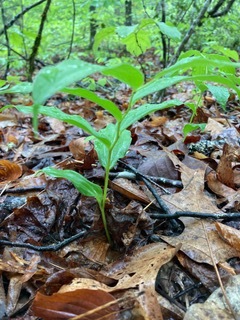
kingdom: Plantae
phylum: Tracheophyta
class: Liliopsida
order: Asparagales
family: Asparagaceae
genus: Maianthemum
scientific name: Maianthemum racemosum
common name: False spikenard
